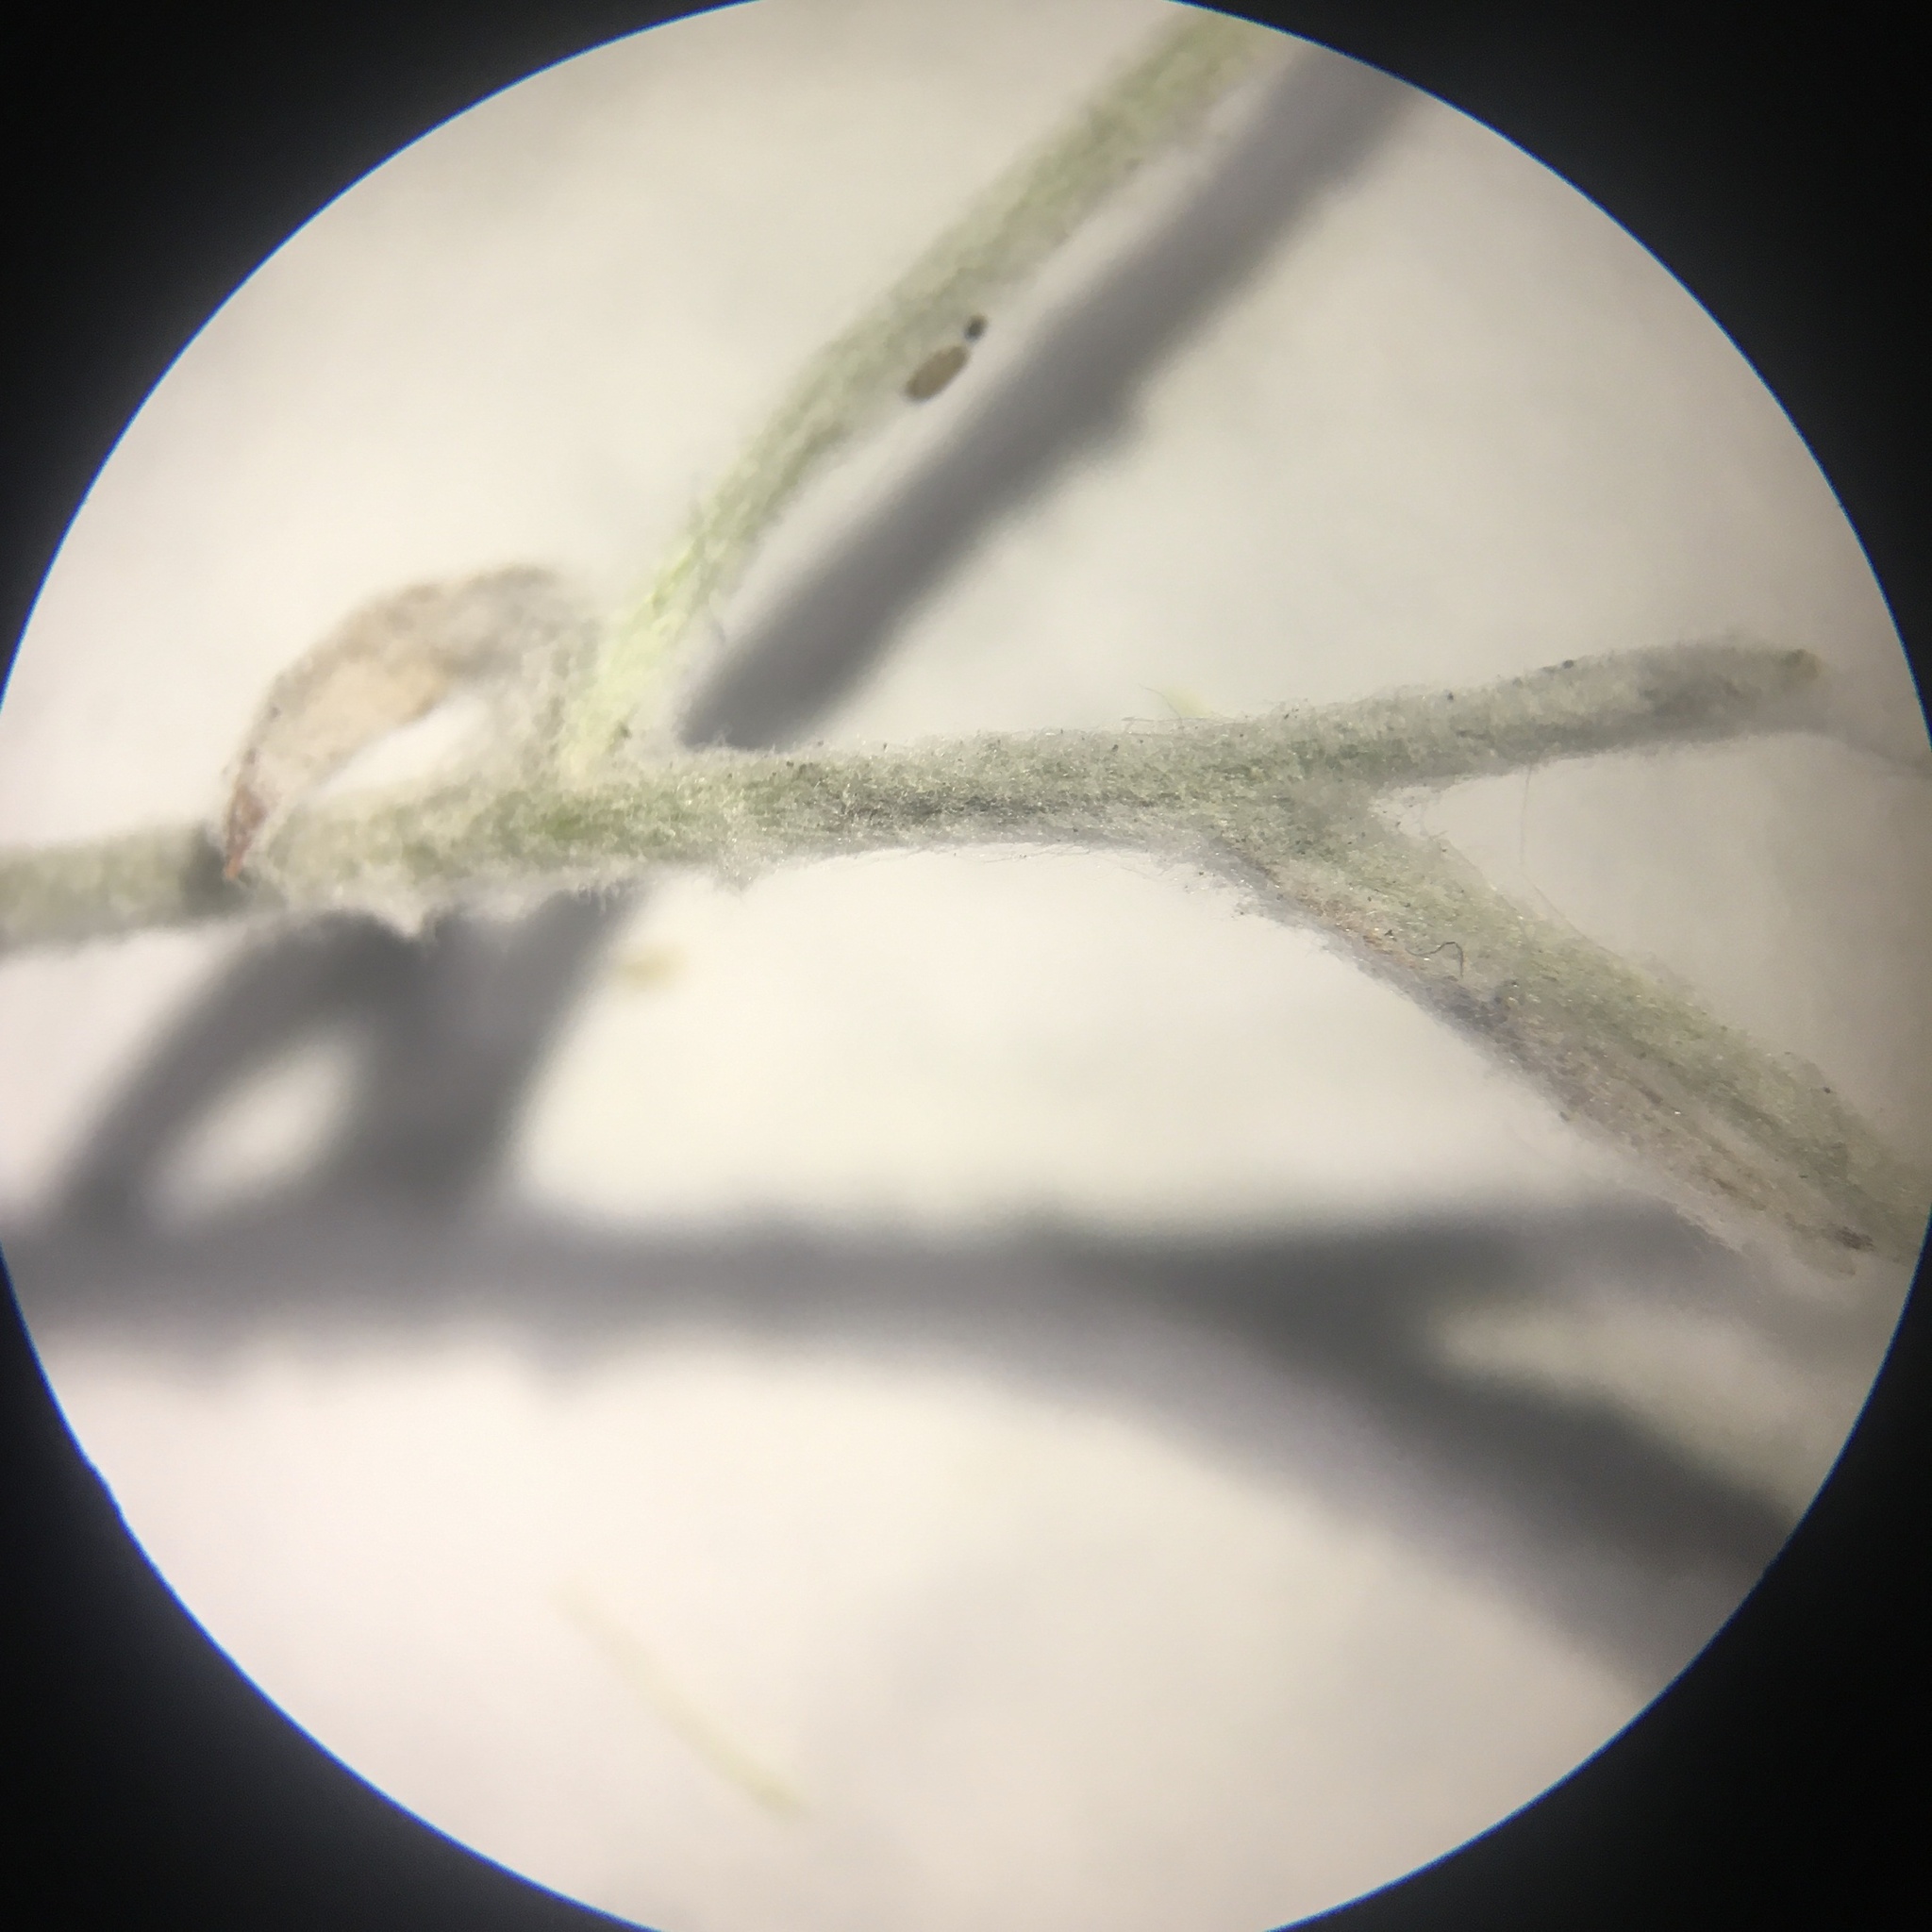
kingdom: Plantae
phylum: Tracheophyta
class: Magnoliopsida
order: Asterales
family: Asteraceae
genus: Pseudognaphalium
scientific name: Pseudognaphalium beneolens
